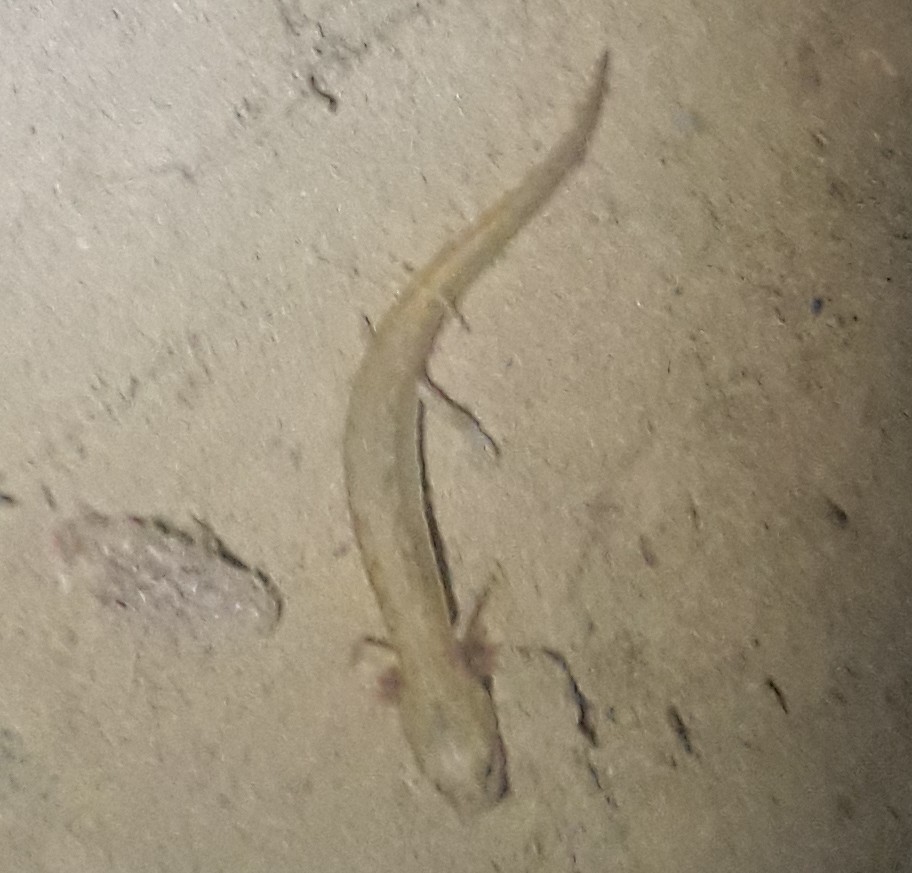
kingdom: Animalia
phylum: Chordata
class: Amphibia
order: Caudata
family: Plethodontidae
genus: Eurycea
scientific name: Eurycea cirrigera
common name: Southern two-lined salamander
